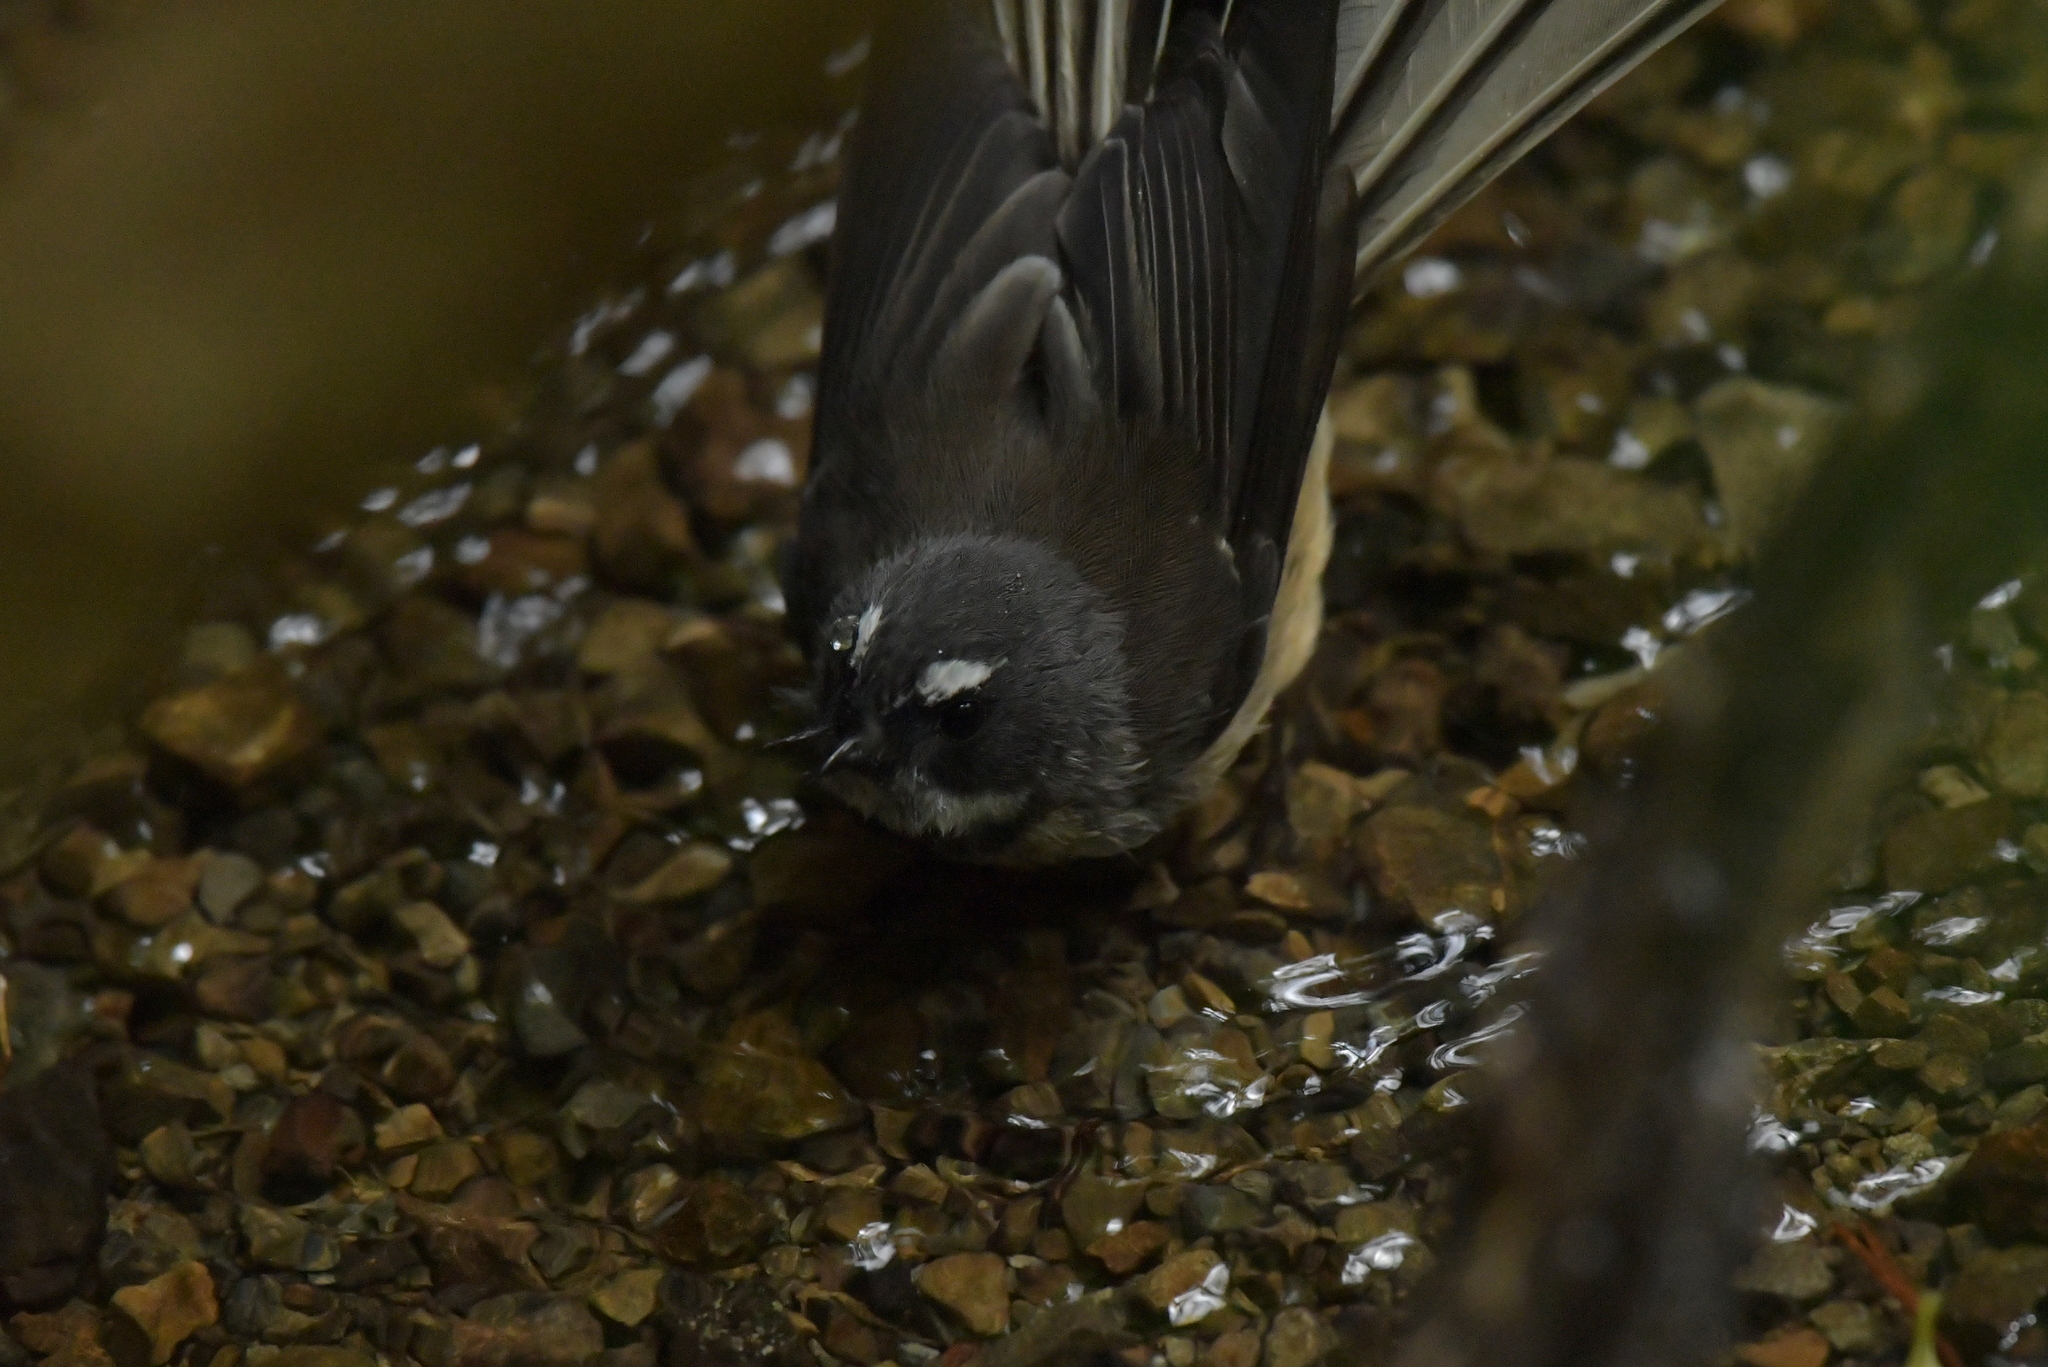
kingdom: Animalia
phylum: Chordata
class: Aves
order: Passeriformes
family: Rhipiduridae
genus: Rhipidura
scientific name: Rhipidura fuliginosa
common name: New zealand fantail
